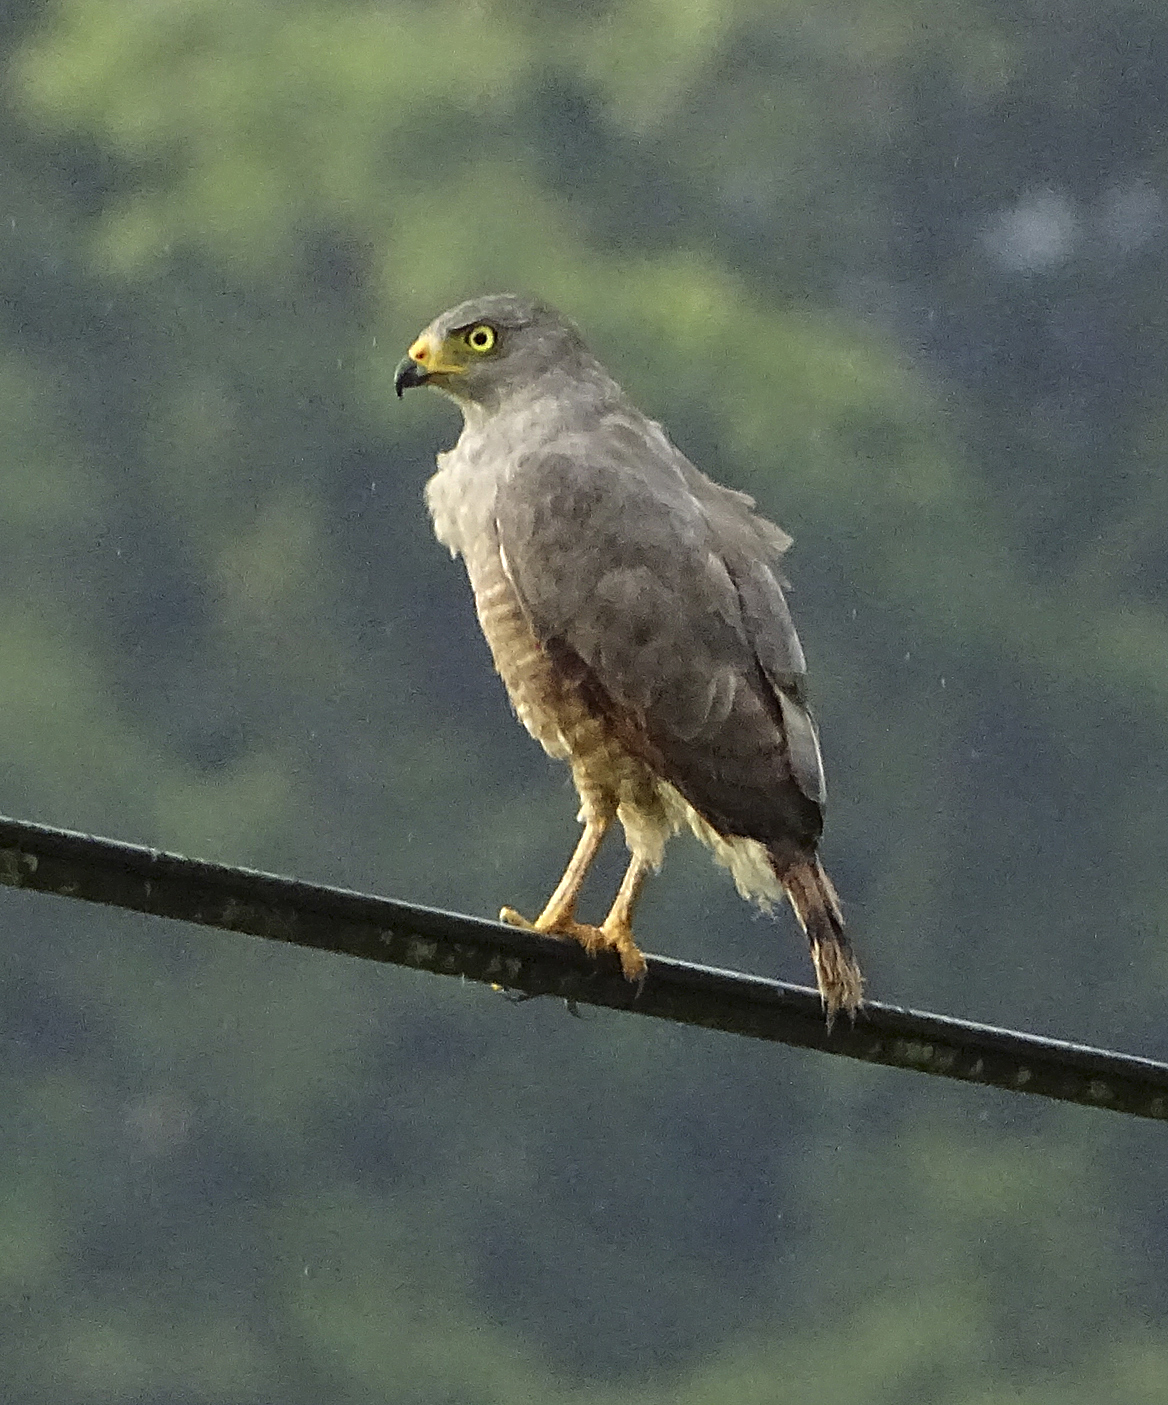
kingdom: Animalia
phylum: Chordata
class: Aves
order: Accipitriformes
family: Accipitridae
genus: Rupornis
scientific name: Rupornis magnirostris
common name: Roadside hawk
